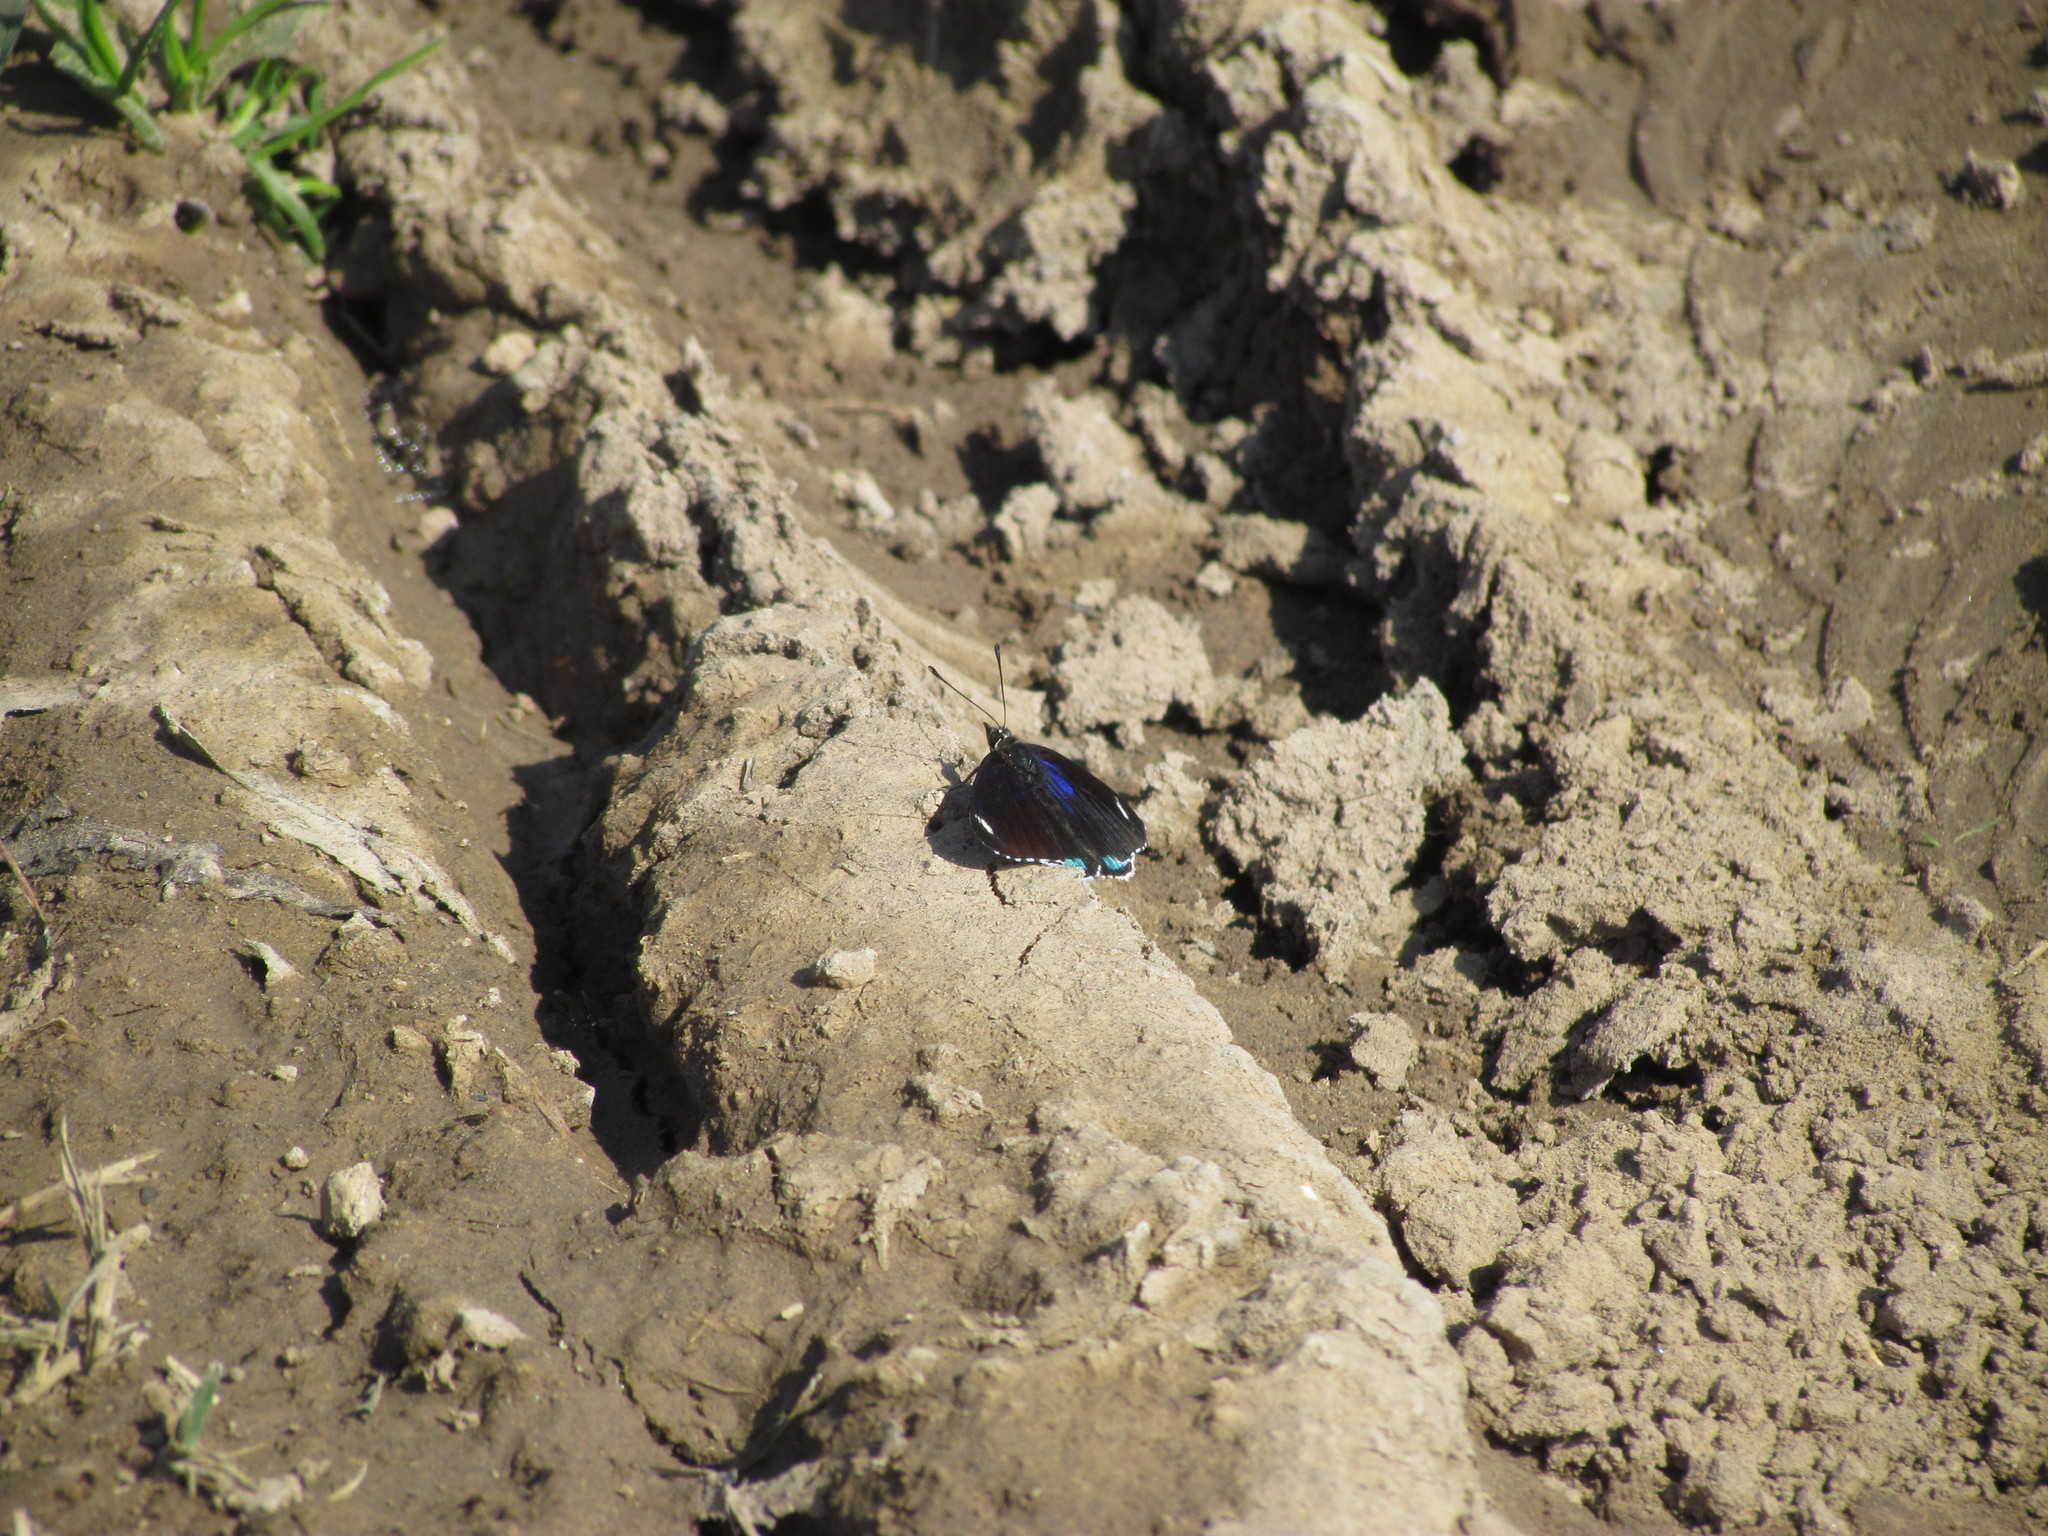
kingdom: Animalia
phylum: Arthropoda
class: Insecta
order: Lepidoptera
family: Nymphalidae
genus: Diaethria
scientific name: Diaethria candrena
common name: Number eighty
